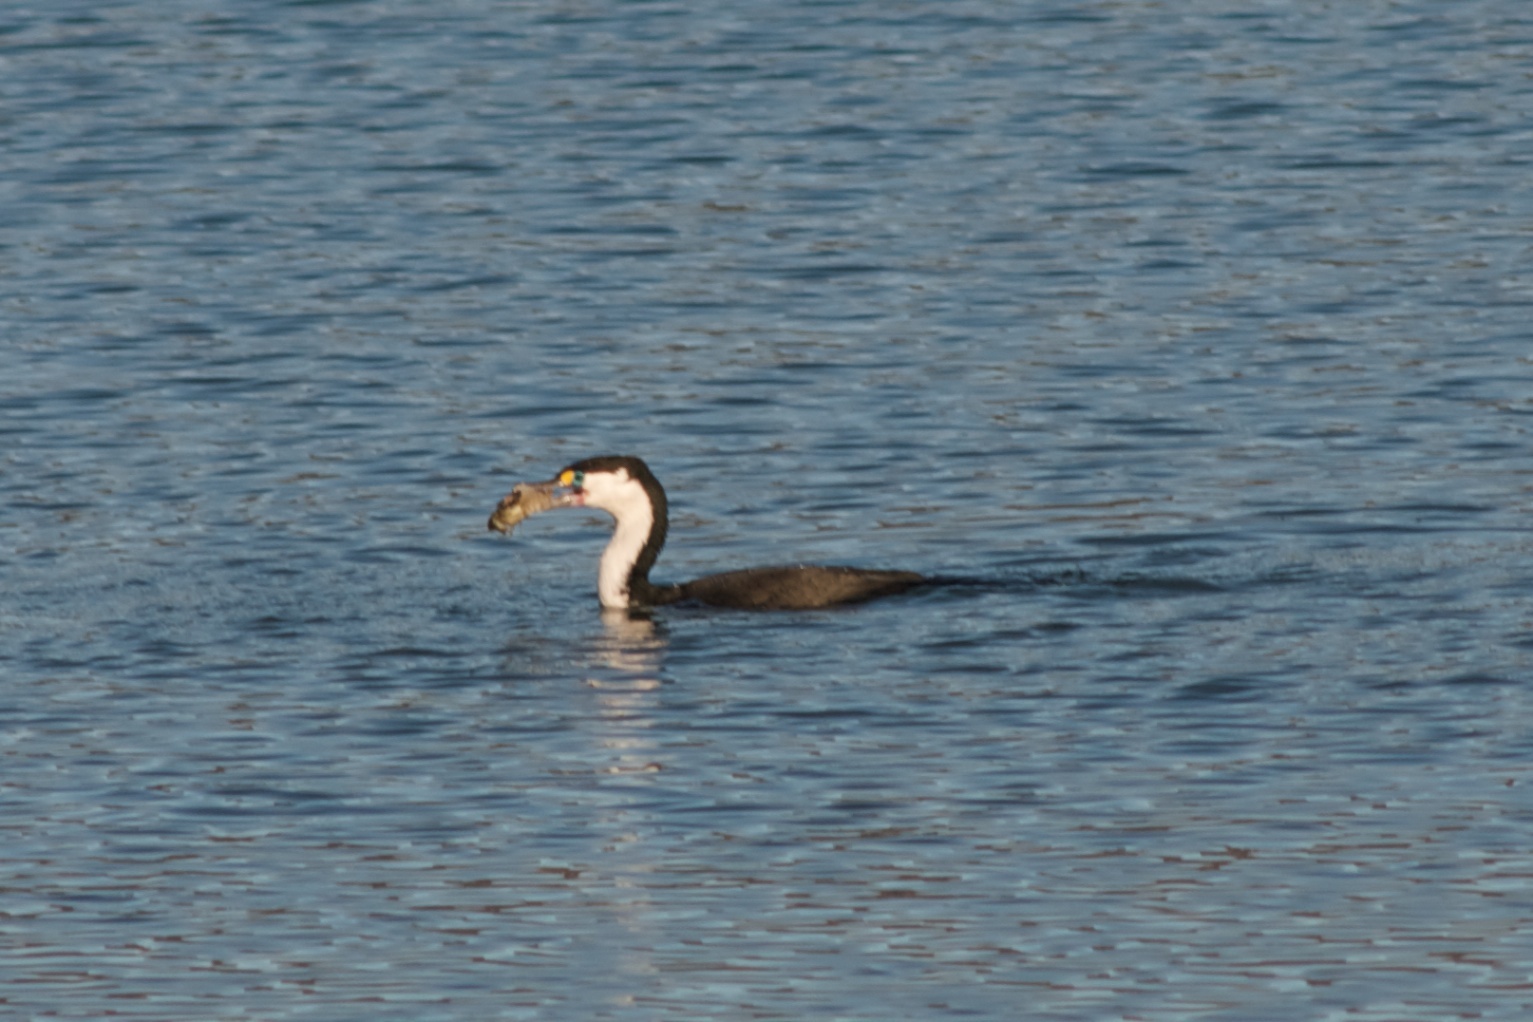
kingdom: Animalia
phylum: Chordata
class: Aves
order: Suliformes
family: Phalacrocoracidae
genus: Phalacrocorax
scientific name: Phalacrocorax varius
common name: Pied cormorant
